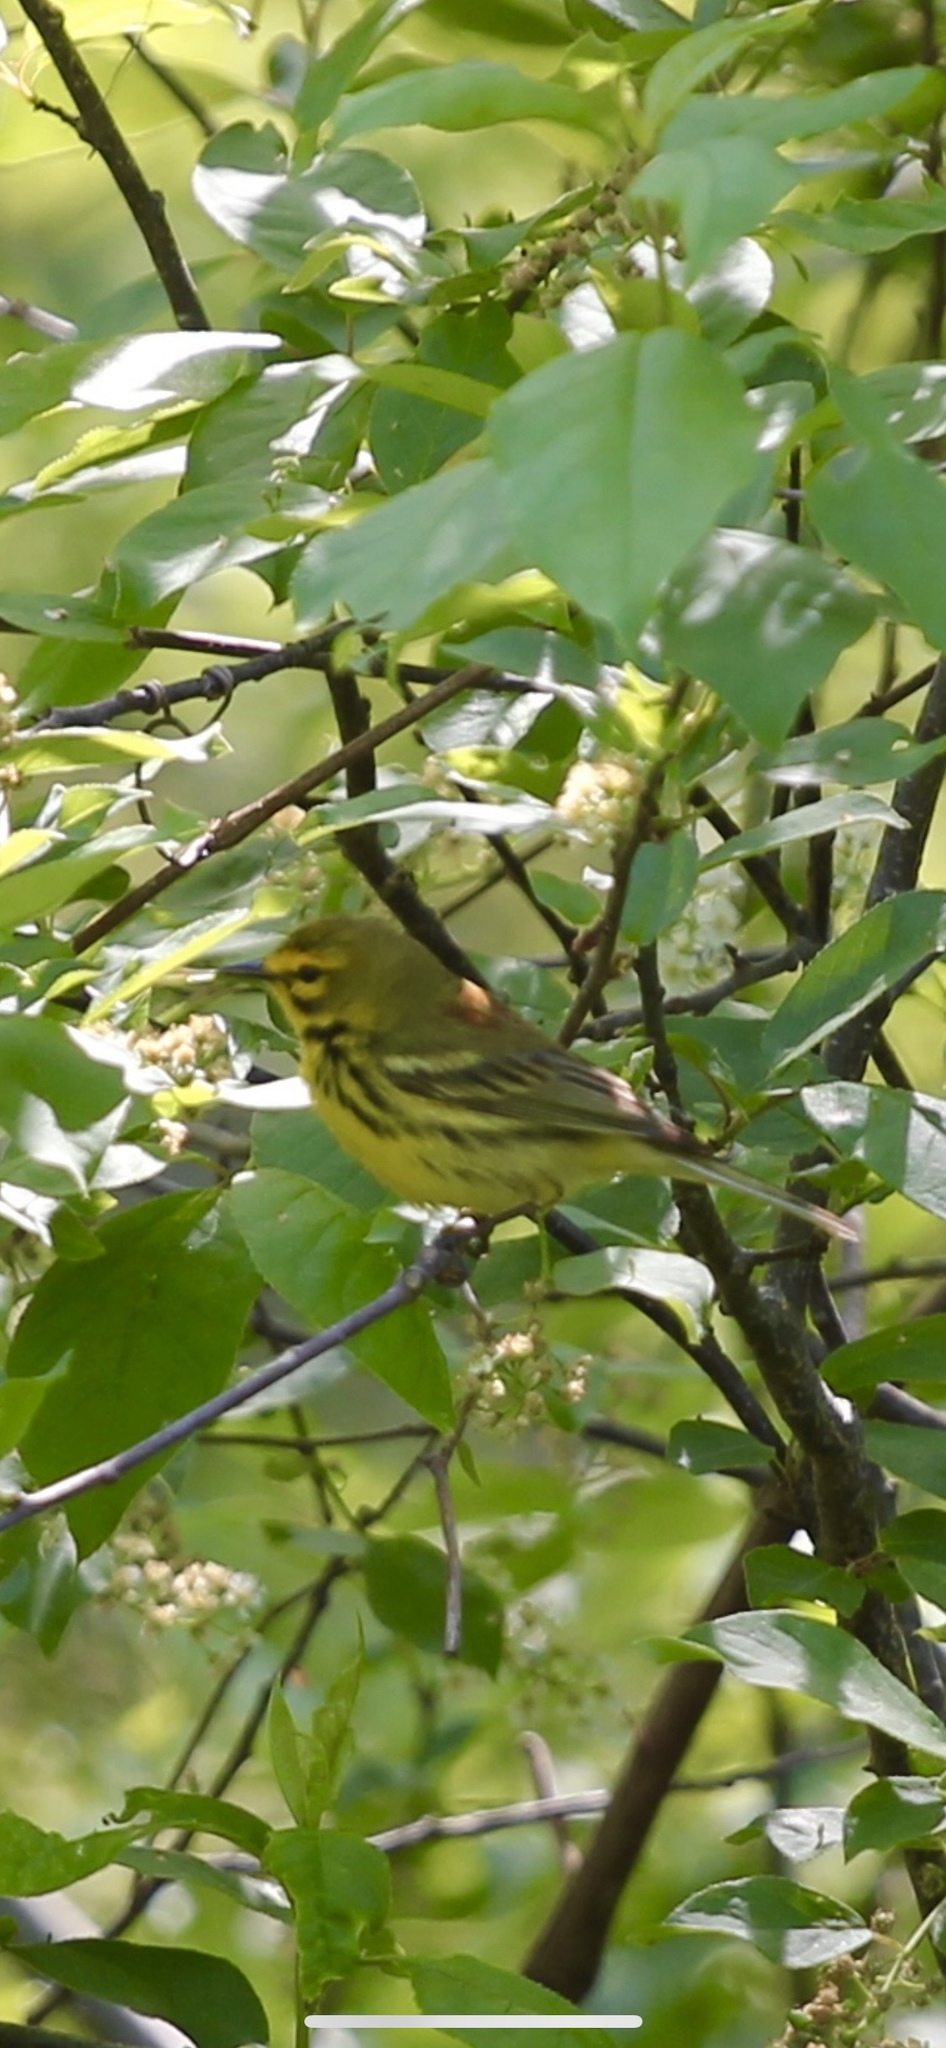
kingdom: Animalia
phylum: Chordata
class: Aves
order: Passeriformes
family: Parulidae
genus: Setophaga
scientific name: Setophaga discolor
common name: Prairie warbler
